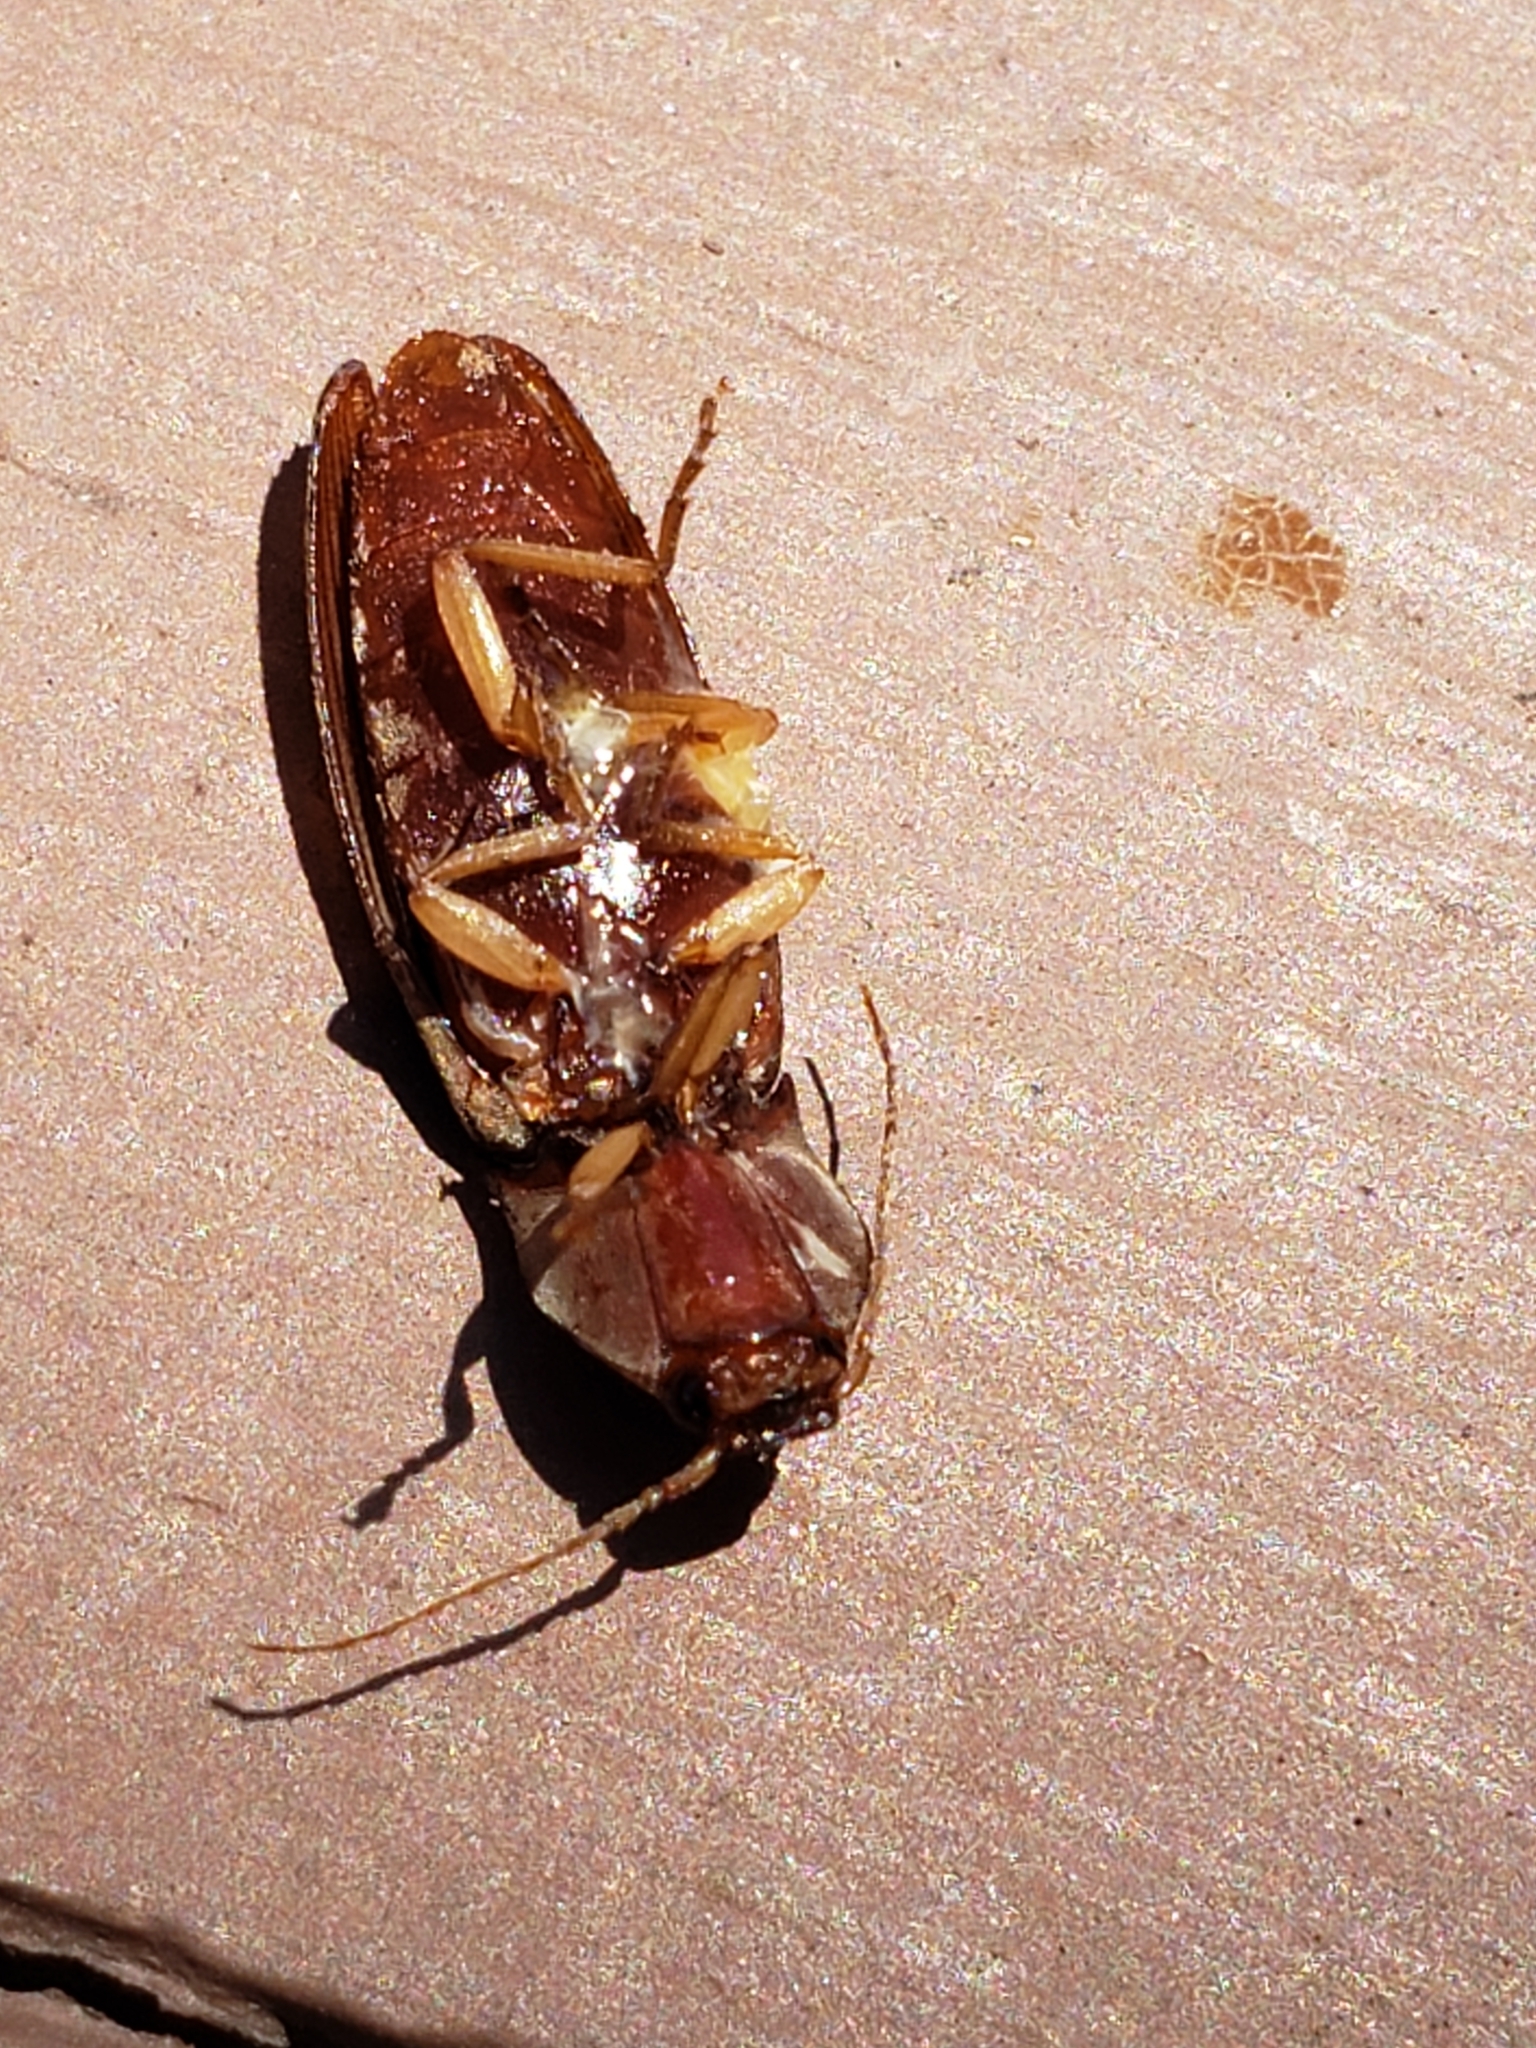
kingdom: Animalia
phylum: Arthropoda
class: Insecta
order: Coleoptera
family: Elateridae
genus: Monocrepidius
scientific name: Monocrepidius lividus
